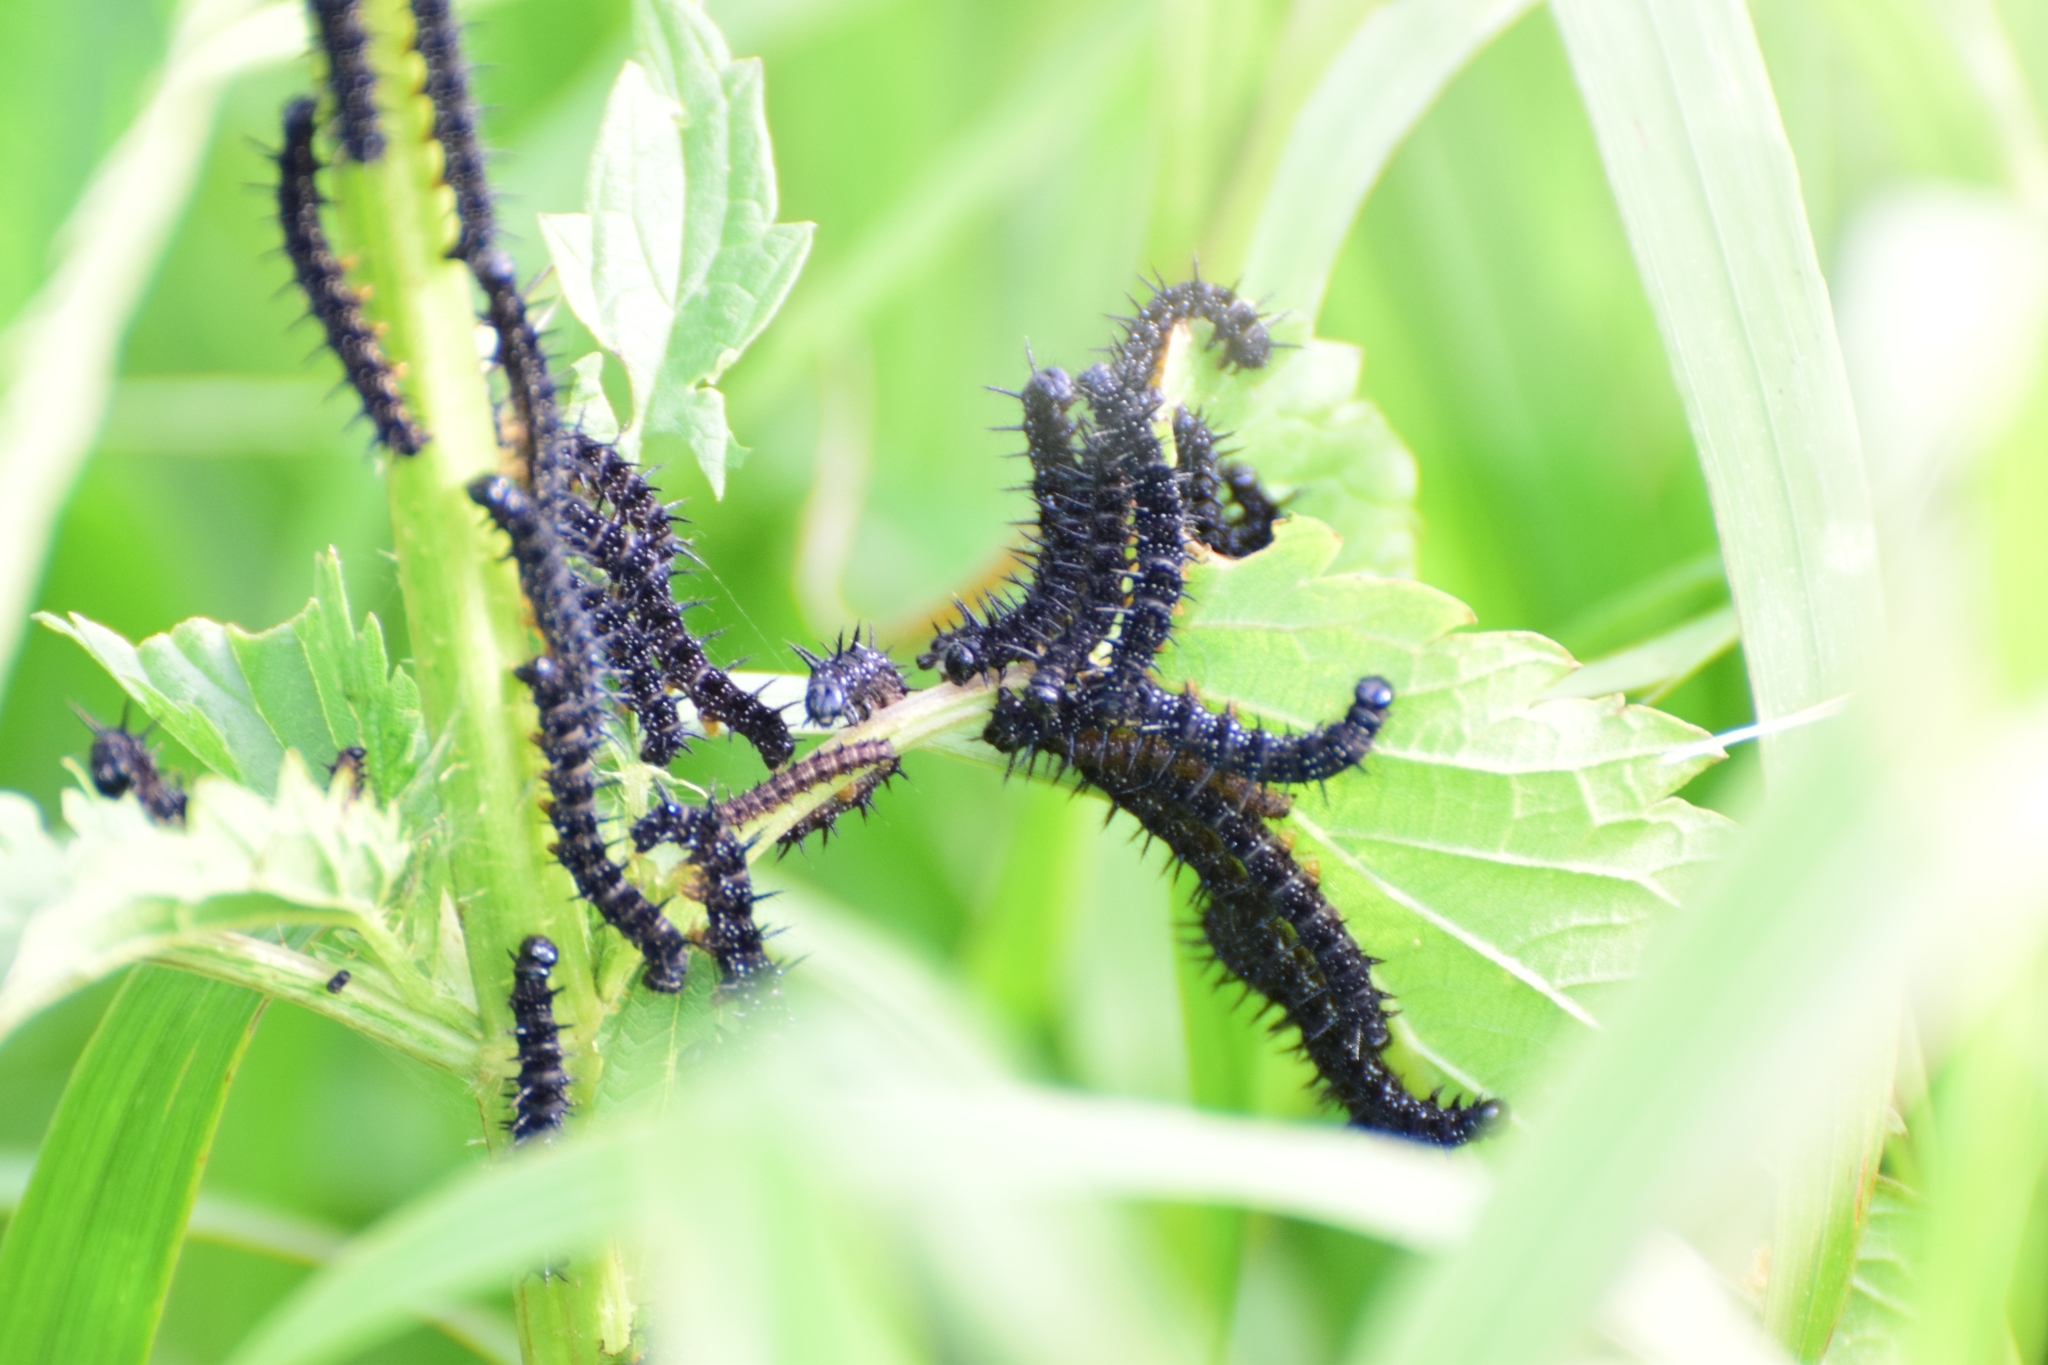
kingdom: Animalia
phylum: Arthropoda
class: Insecta
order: Lepidoptera
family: Nymphalidae
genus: Aglais
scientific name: Aglais io
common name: Peacock
